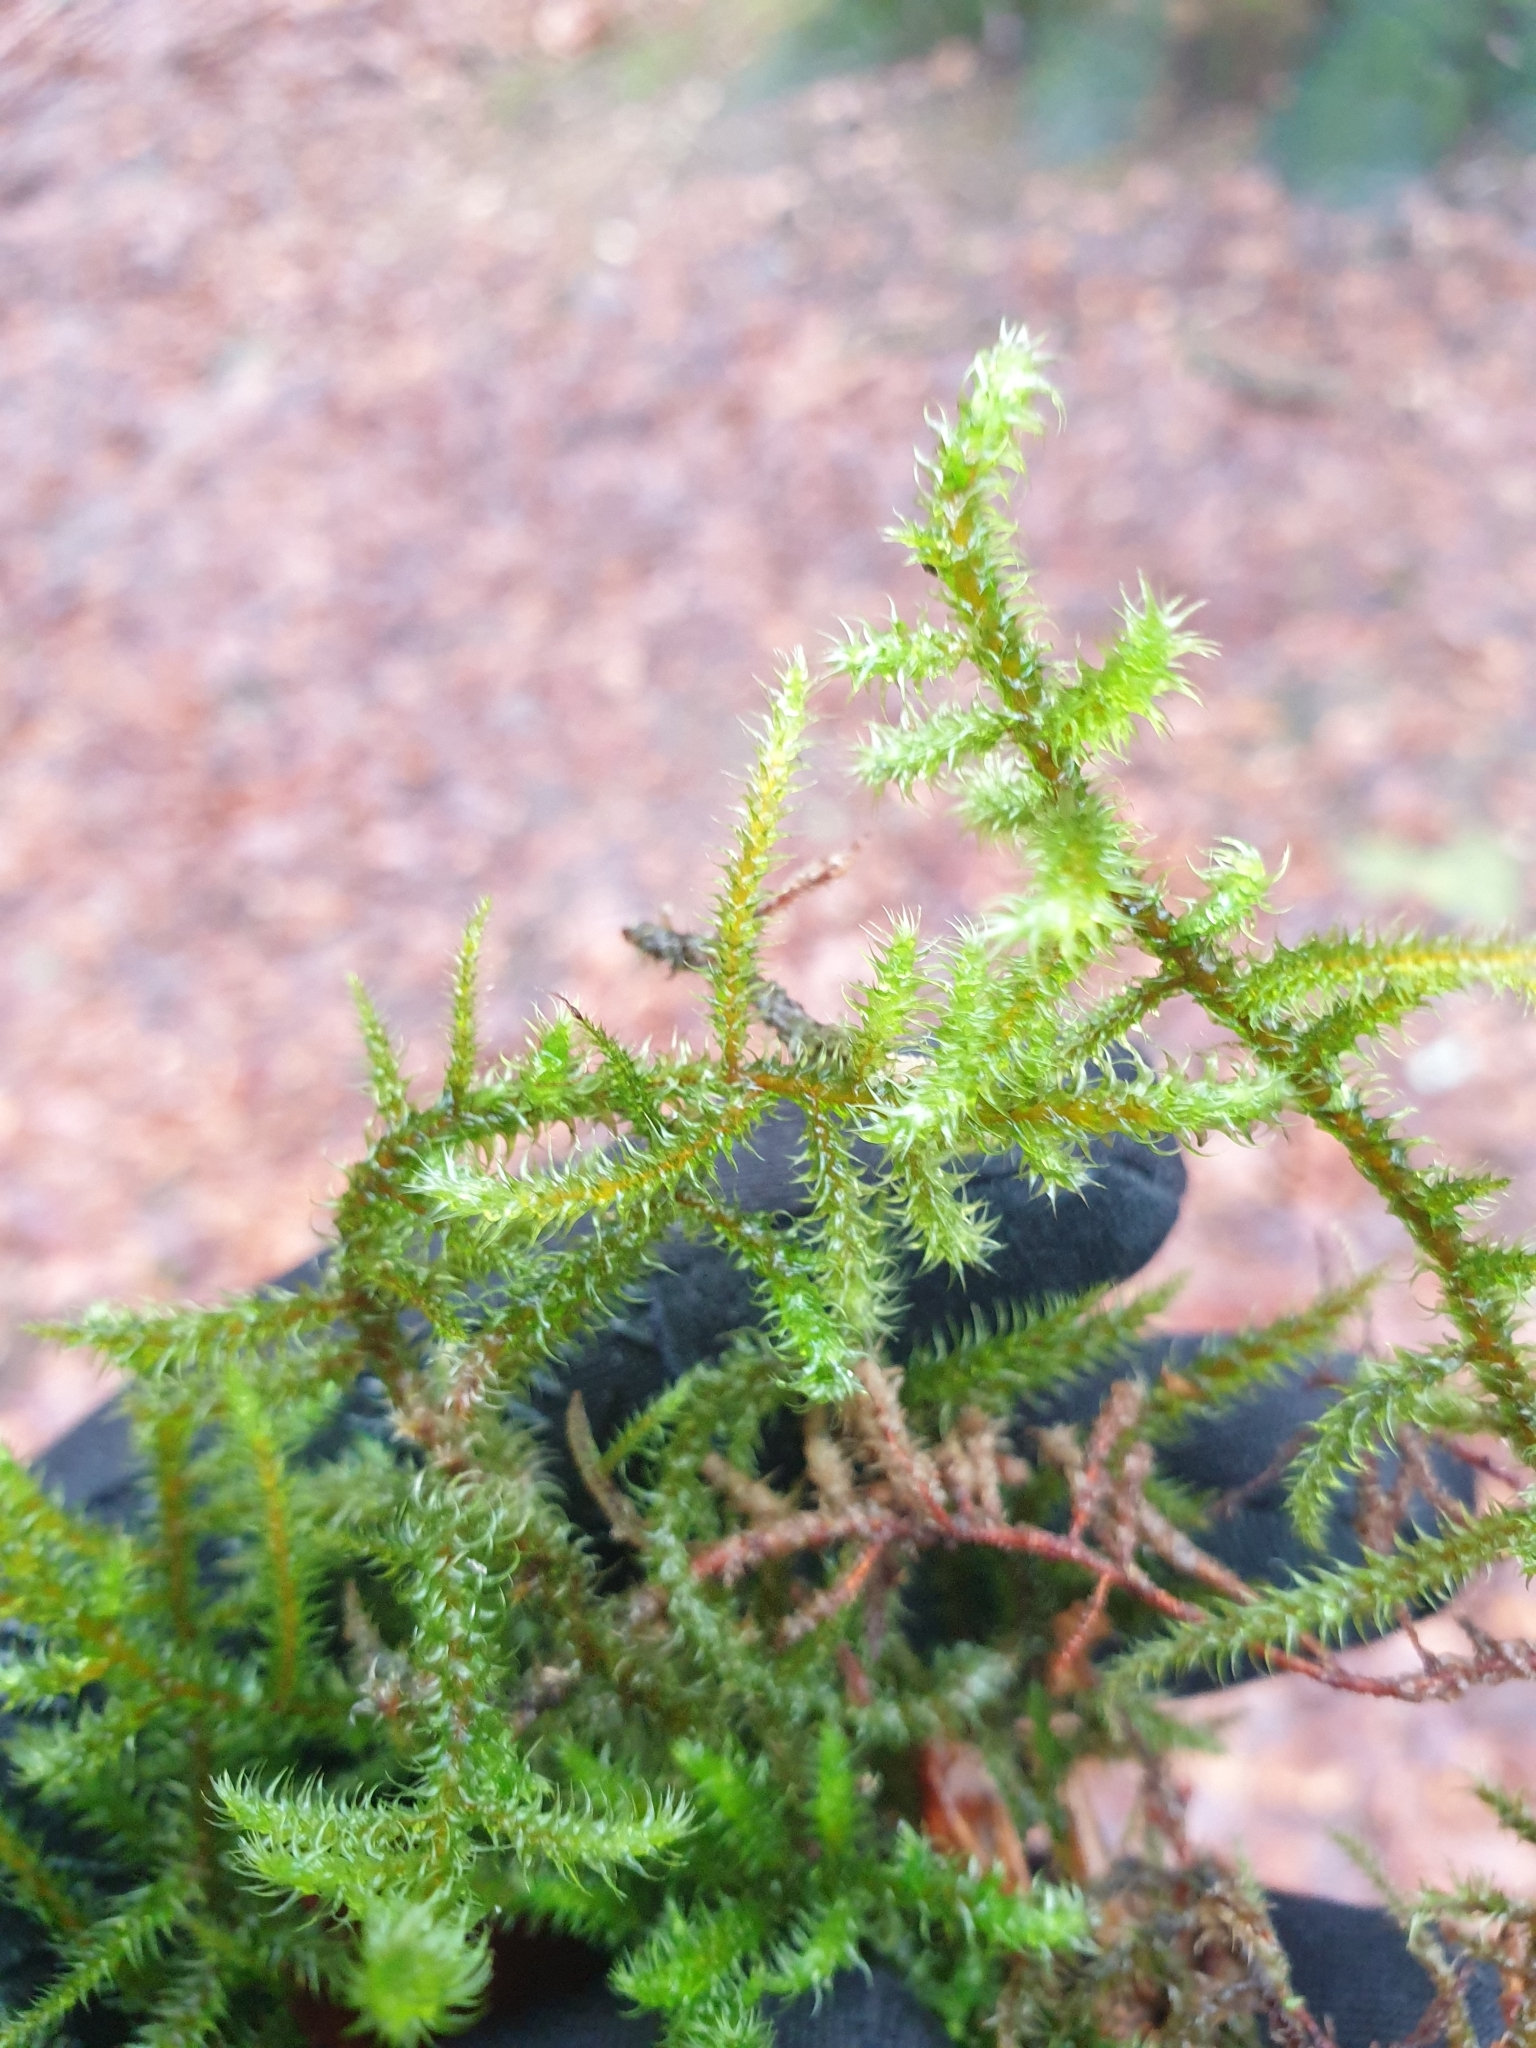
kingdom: Plantae
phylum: Bryophyta
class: Bryopsida
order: Hypnales
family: Hylocomiaceae
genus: Rhytidiadelphus
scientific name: Rhytidiadelphus loreus
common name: Lanky moss
